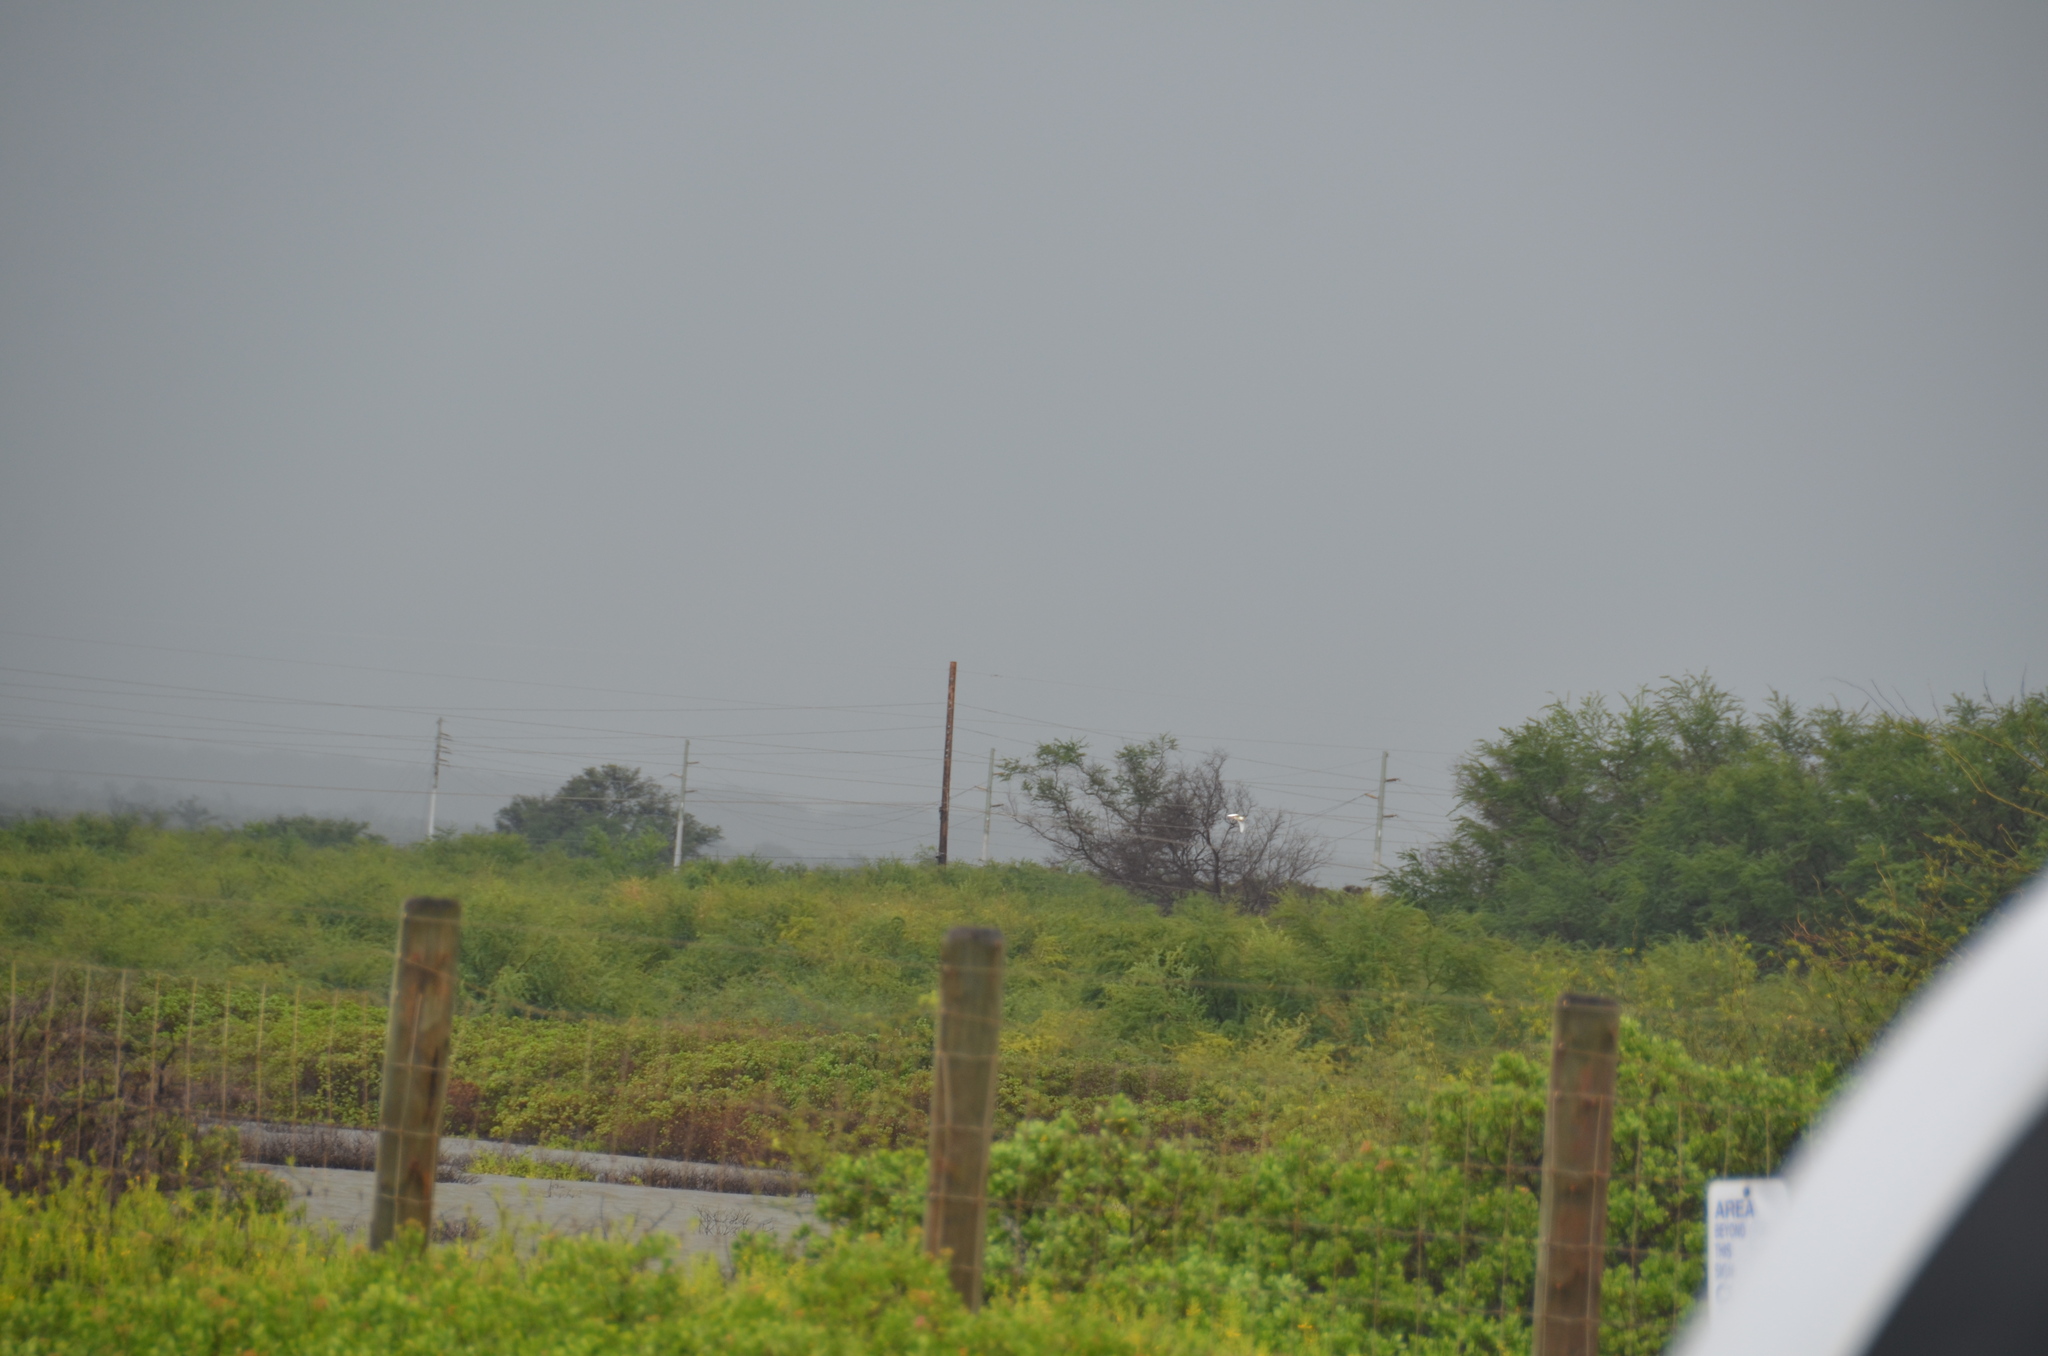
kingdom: Animalia
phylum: Chordata
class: Aves
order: Pelecaniformes
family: Ardeidae
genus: Bubulcus
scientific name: Bubulcus ibis
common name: Cattle egret
